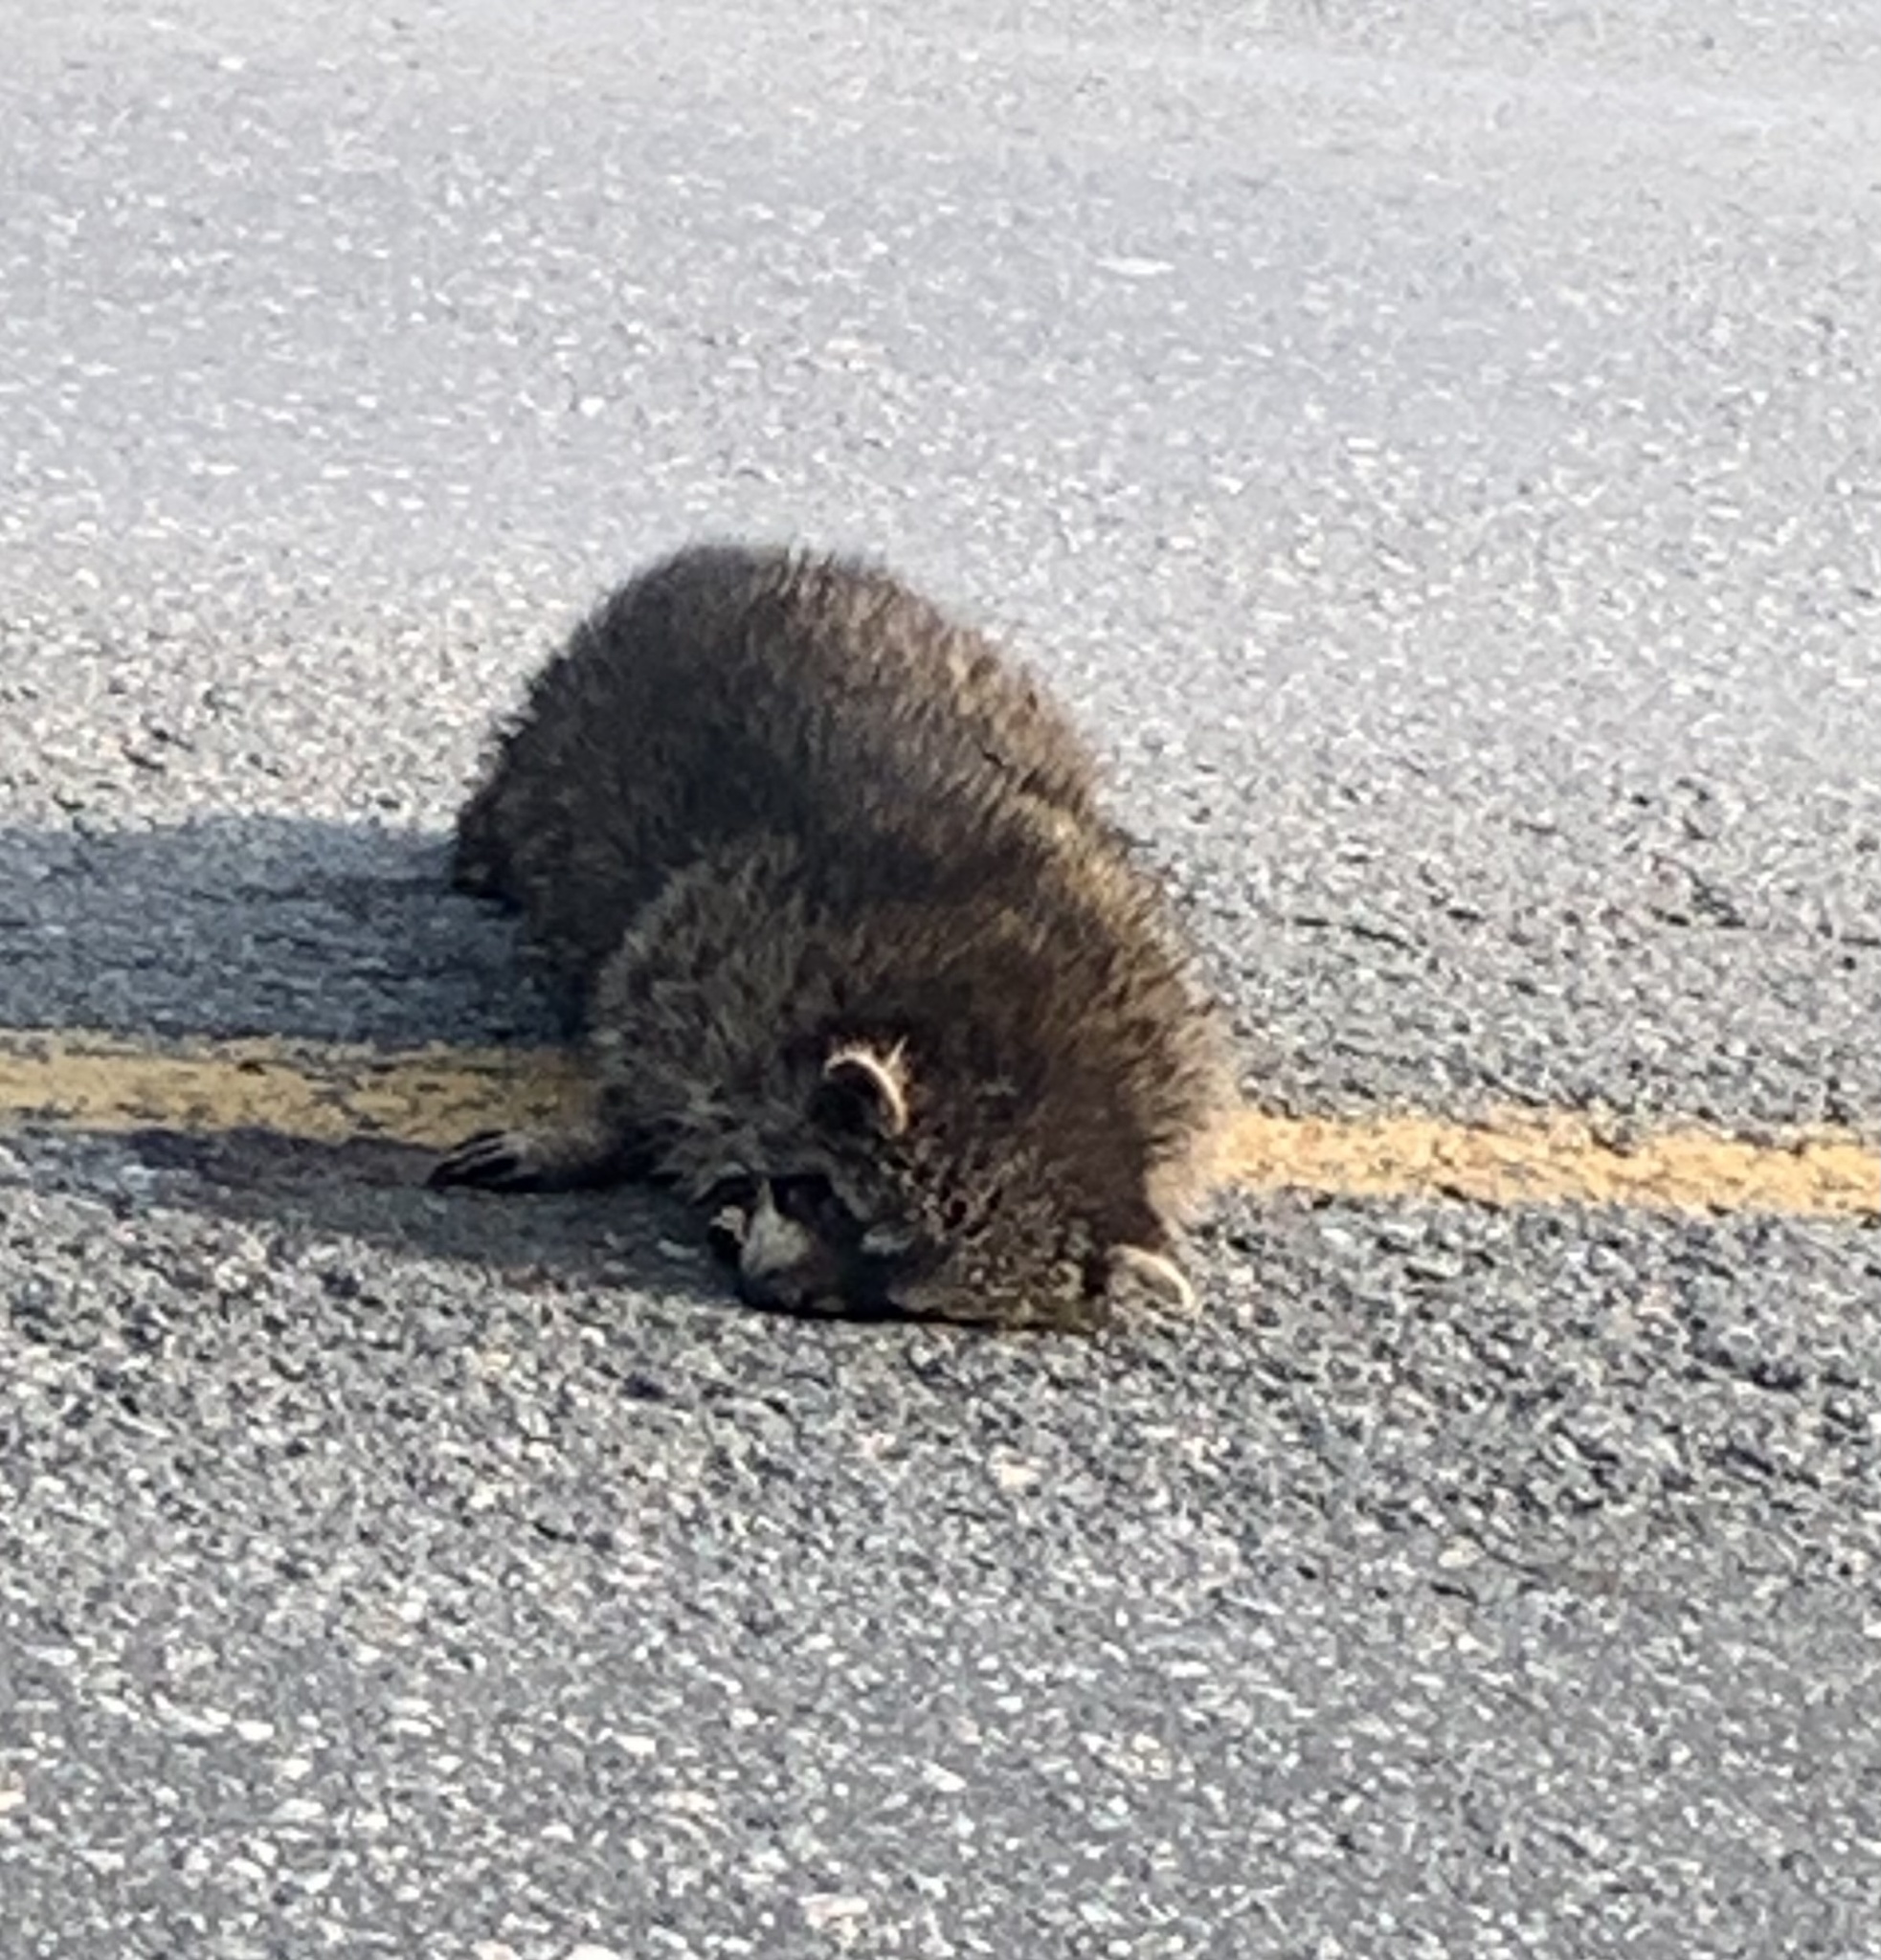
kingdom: Animalia
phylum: Chordata
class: Mammalia
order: Carnivora
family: Procyonidae
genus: Procyon
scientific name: Procyon lotor
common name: Raccoon
